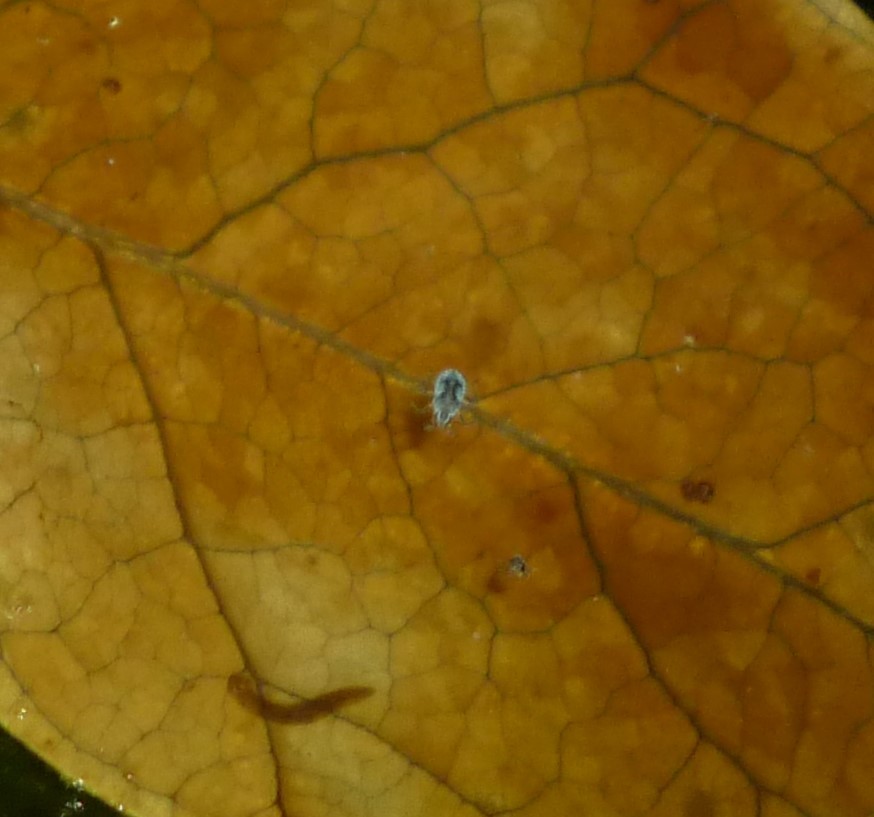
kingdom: Animalia
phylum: Arthropoda
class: Insecta
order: Hemiptera
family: Veliidae
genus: Microvelia
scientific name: Microvelia
